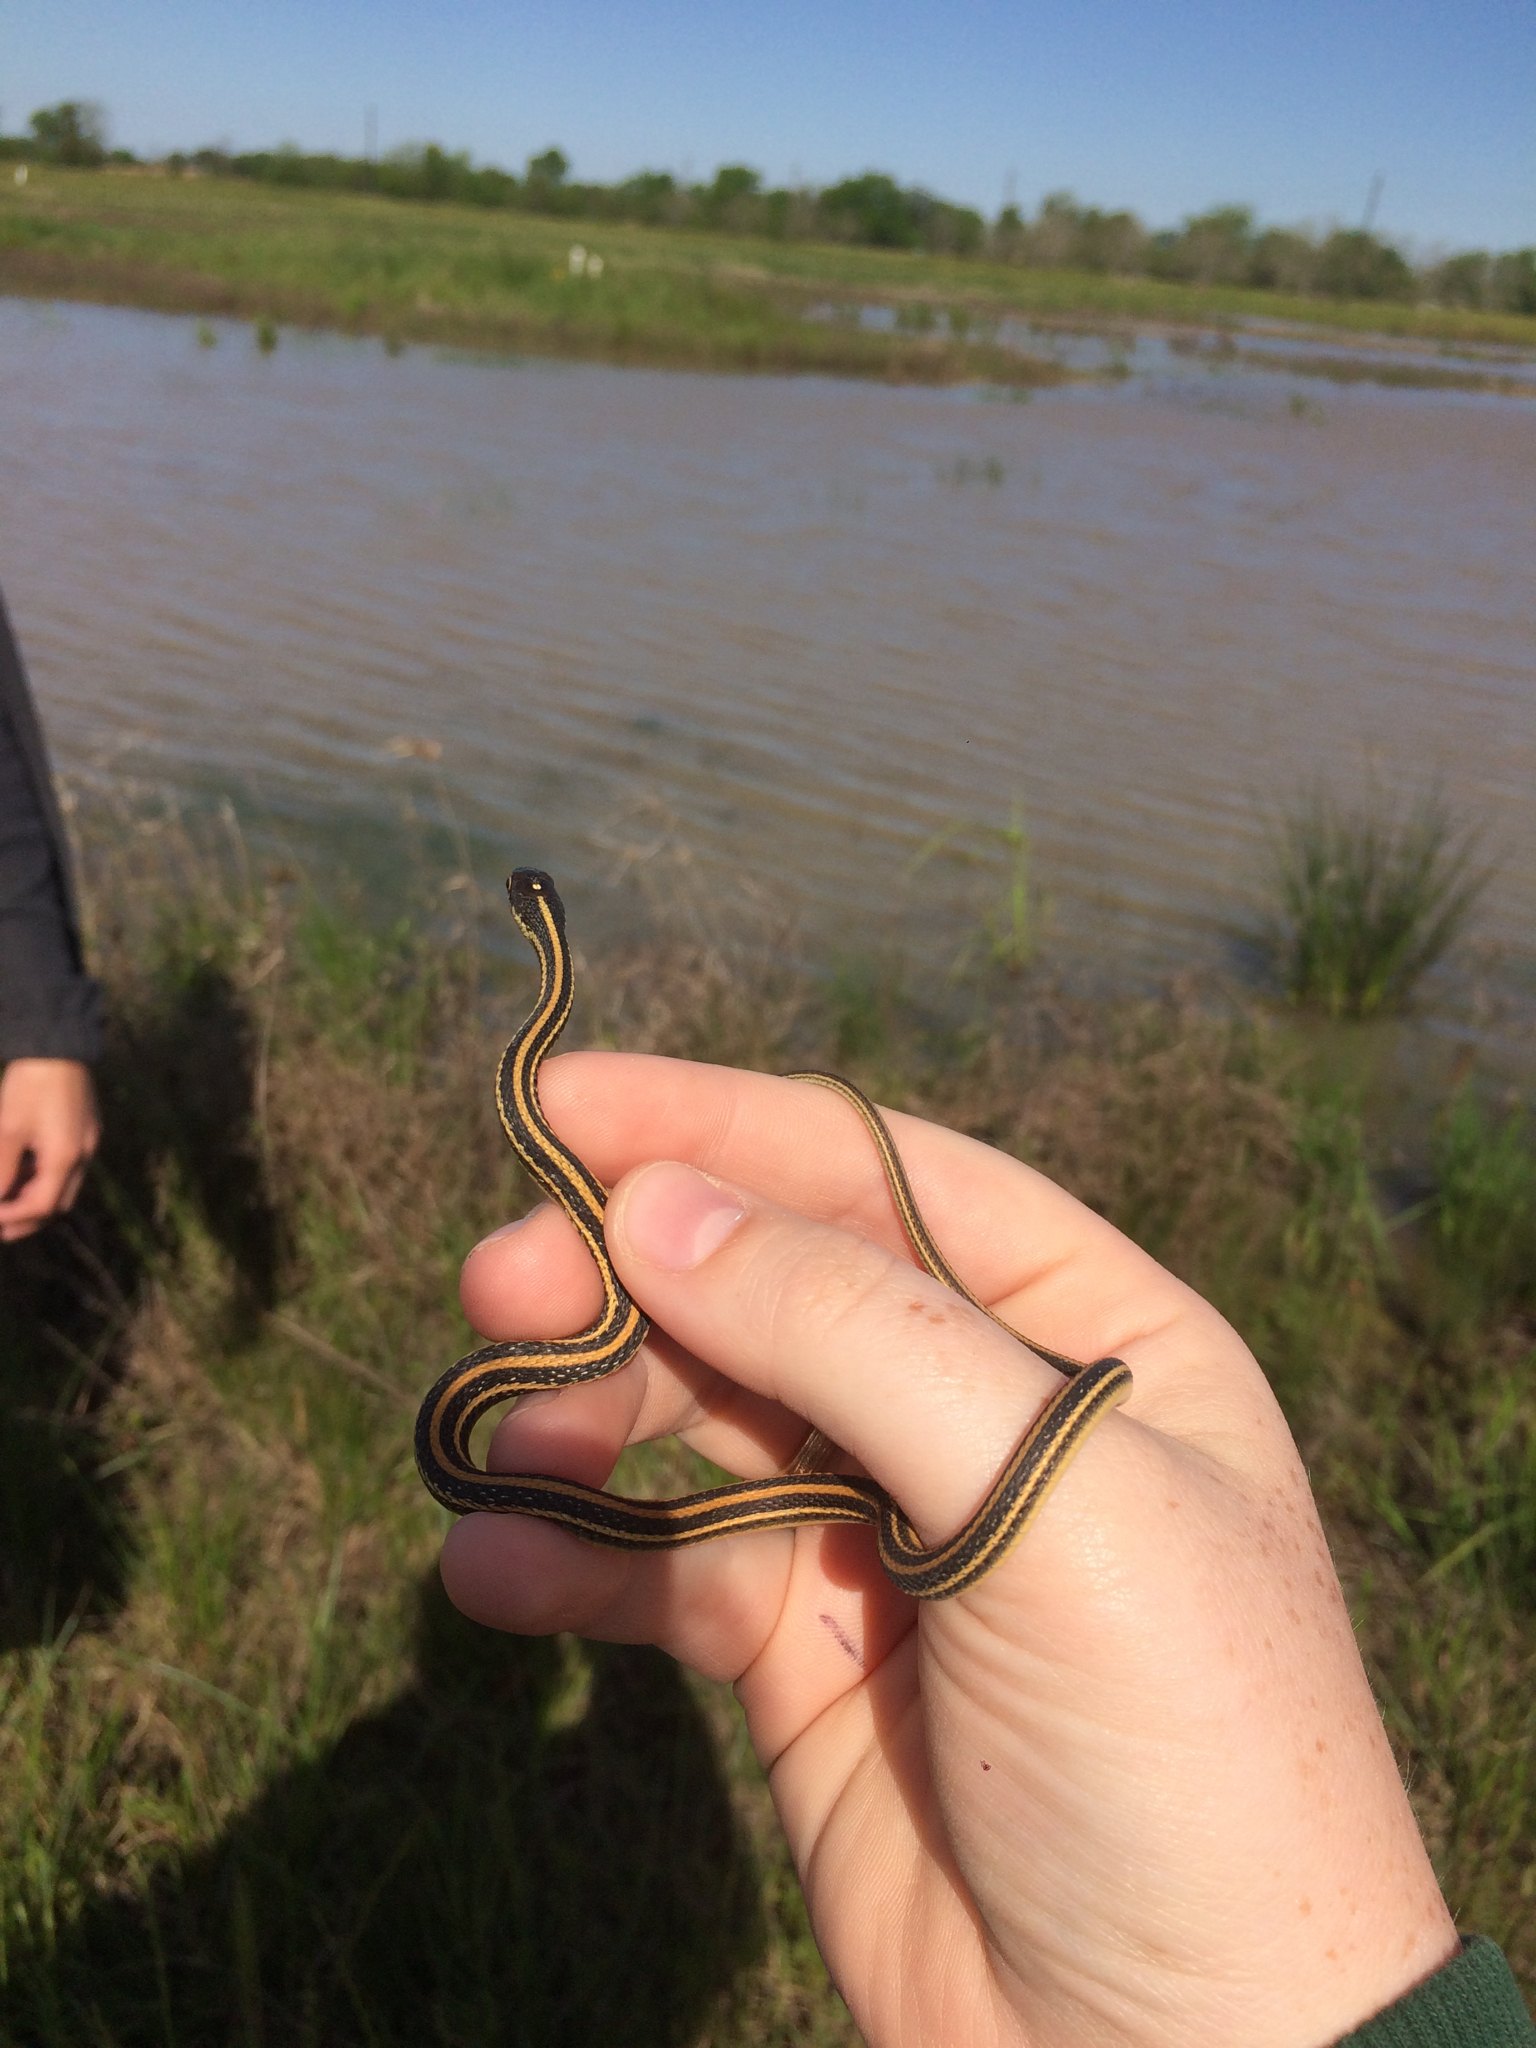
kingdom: Animalia
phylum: Chordata
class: Squamata
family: Colubridae
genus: Thamnophis
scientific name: Thamnophis proximus
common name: Western ribbon snake
